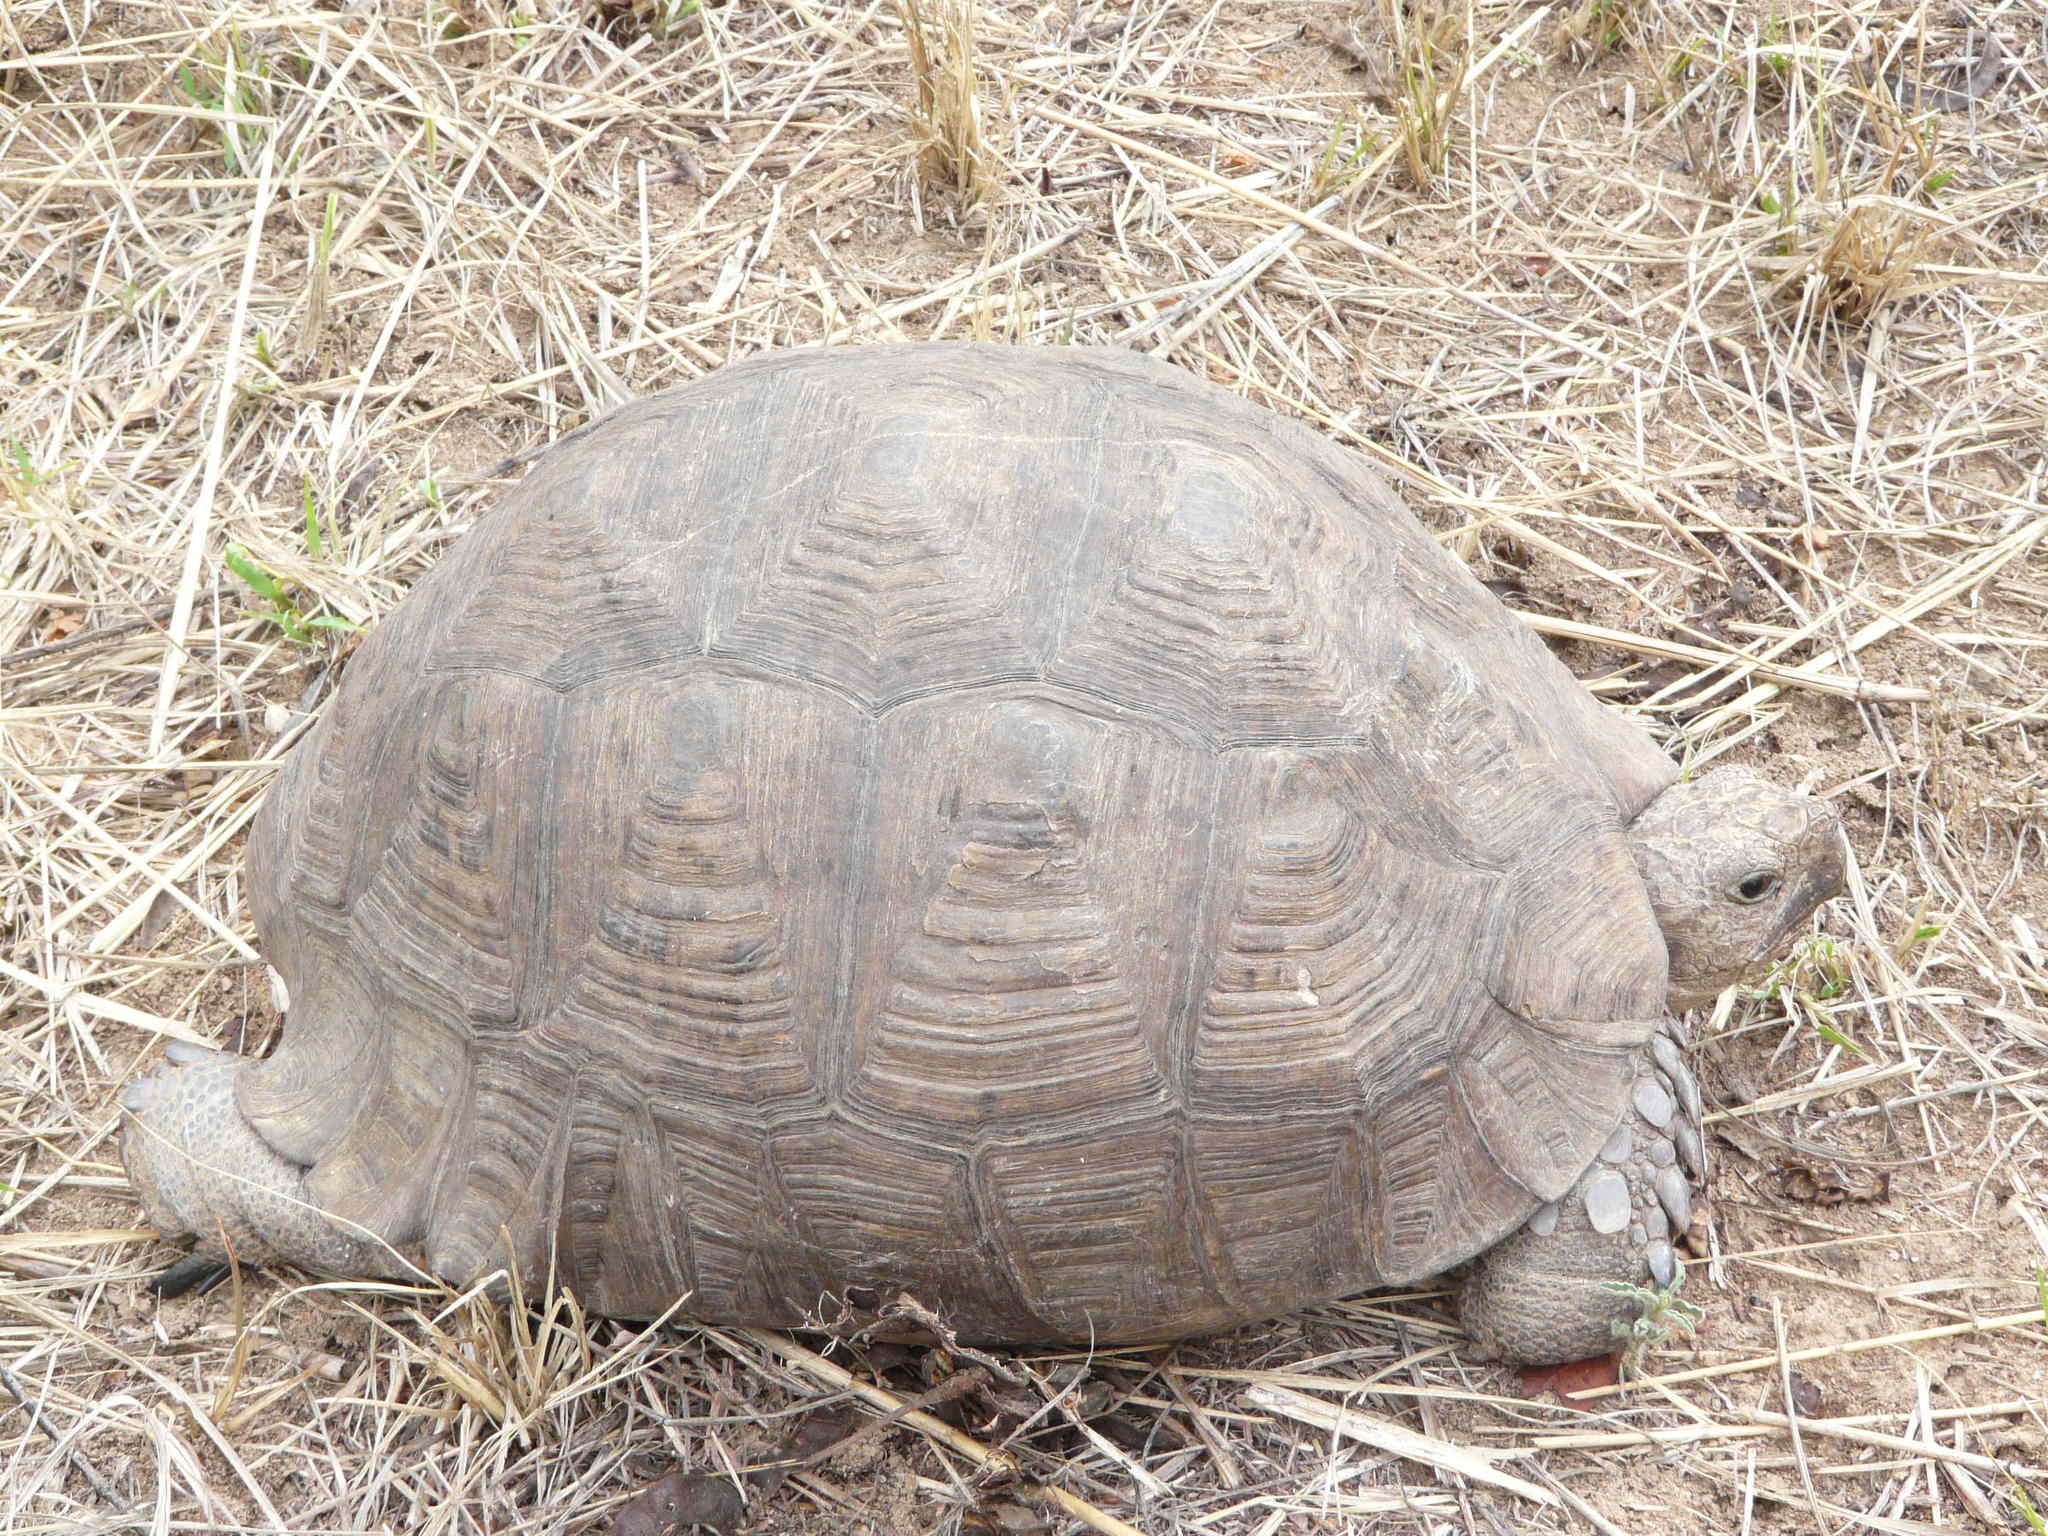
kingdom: Animalia
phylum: Chordata
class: Testudines
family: Testudinidae
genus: Stigmochelys
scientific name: Stigmochelys pardalis
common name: Leopard tortoise
